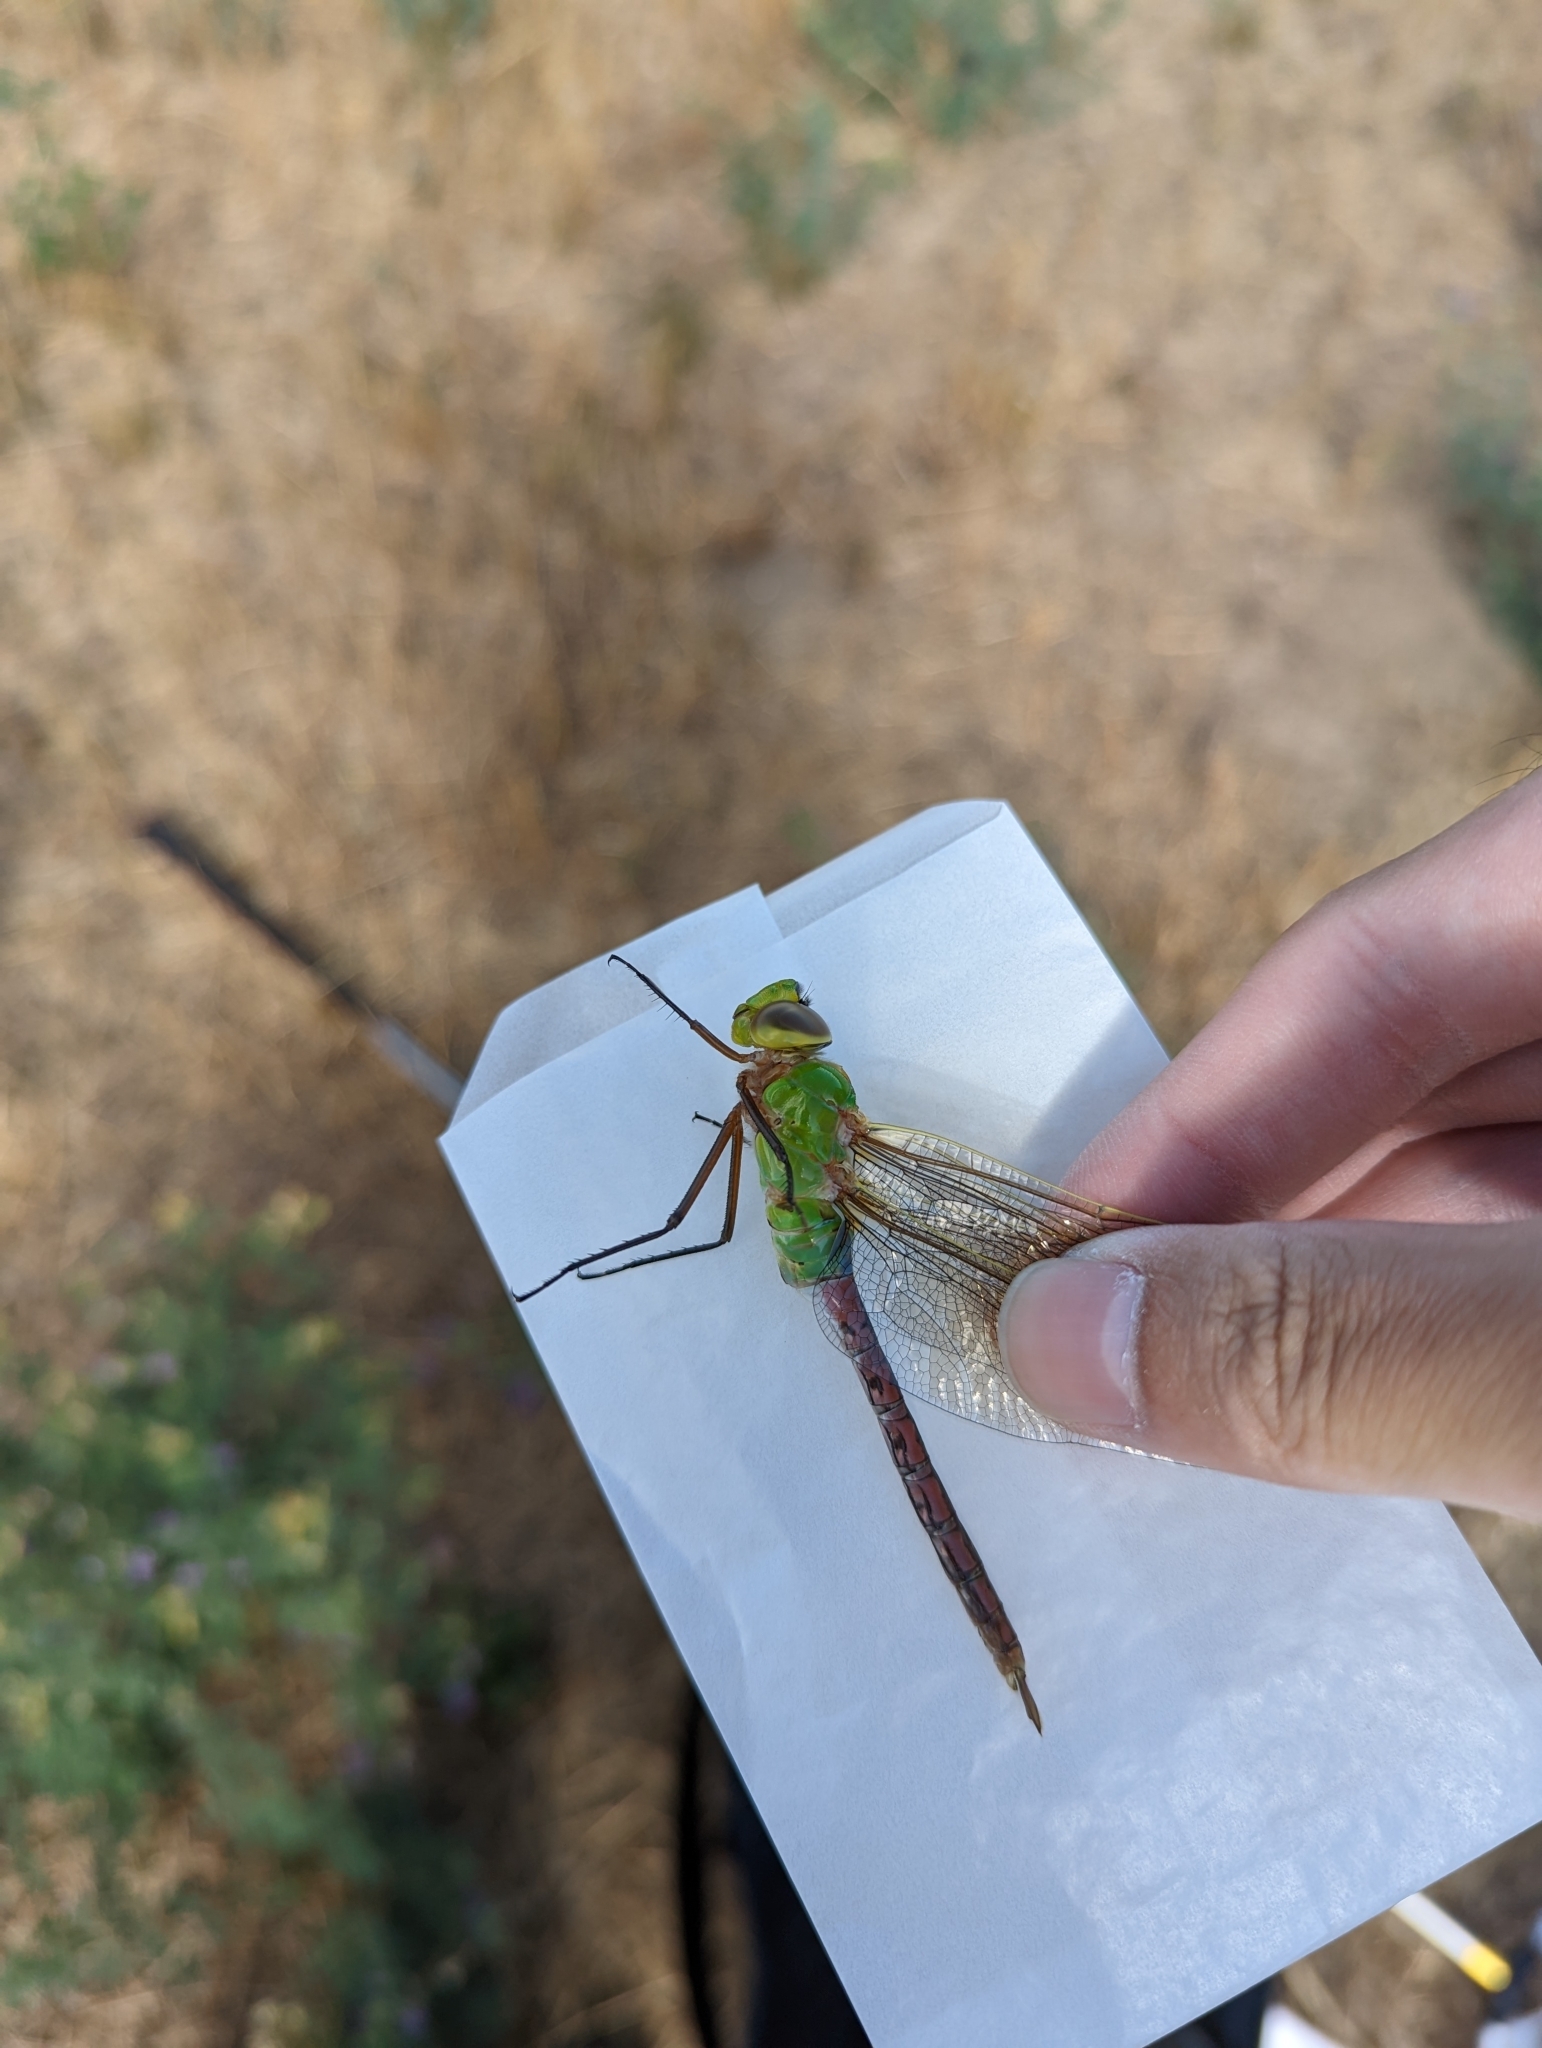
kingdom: Animalia
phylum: Arthropoda
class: Insecta
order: Odonata
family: Aeshnidae
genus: Anax
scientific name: Anax junius
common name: Common green darner
